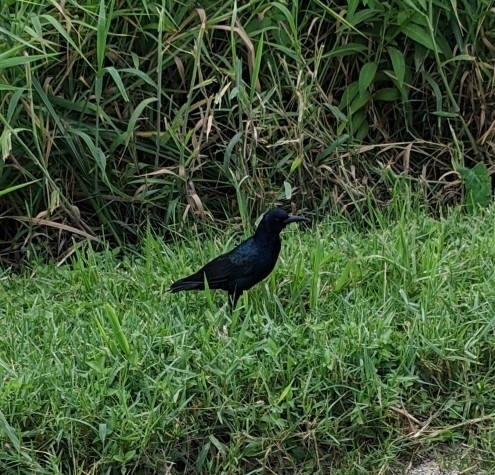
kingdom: Animalia
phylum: Chordata
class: Aves
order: Passeriformes
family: Icteridae
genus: Quiscalus
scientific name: Quiscalus major
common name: Boat-tailed grackle
